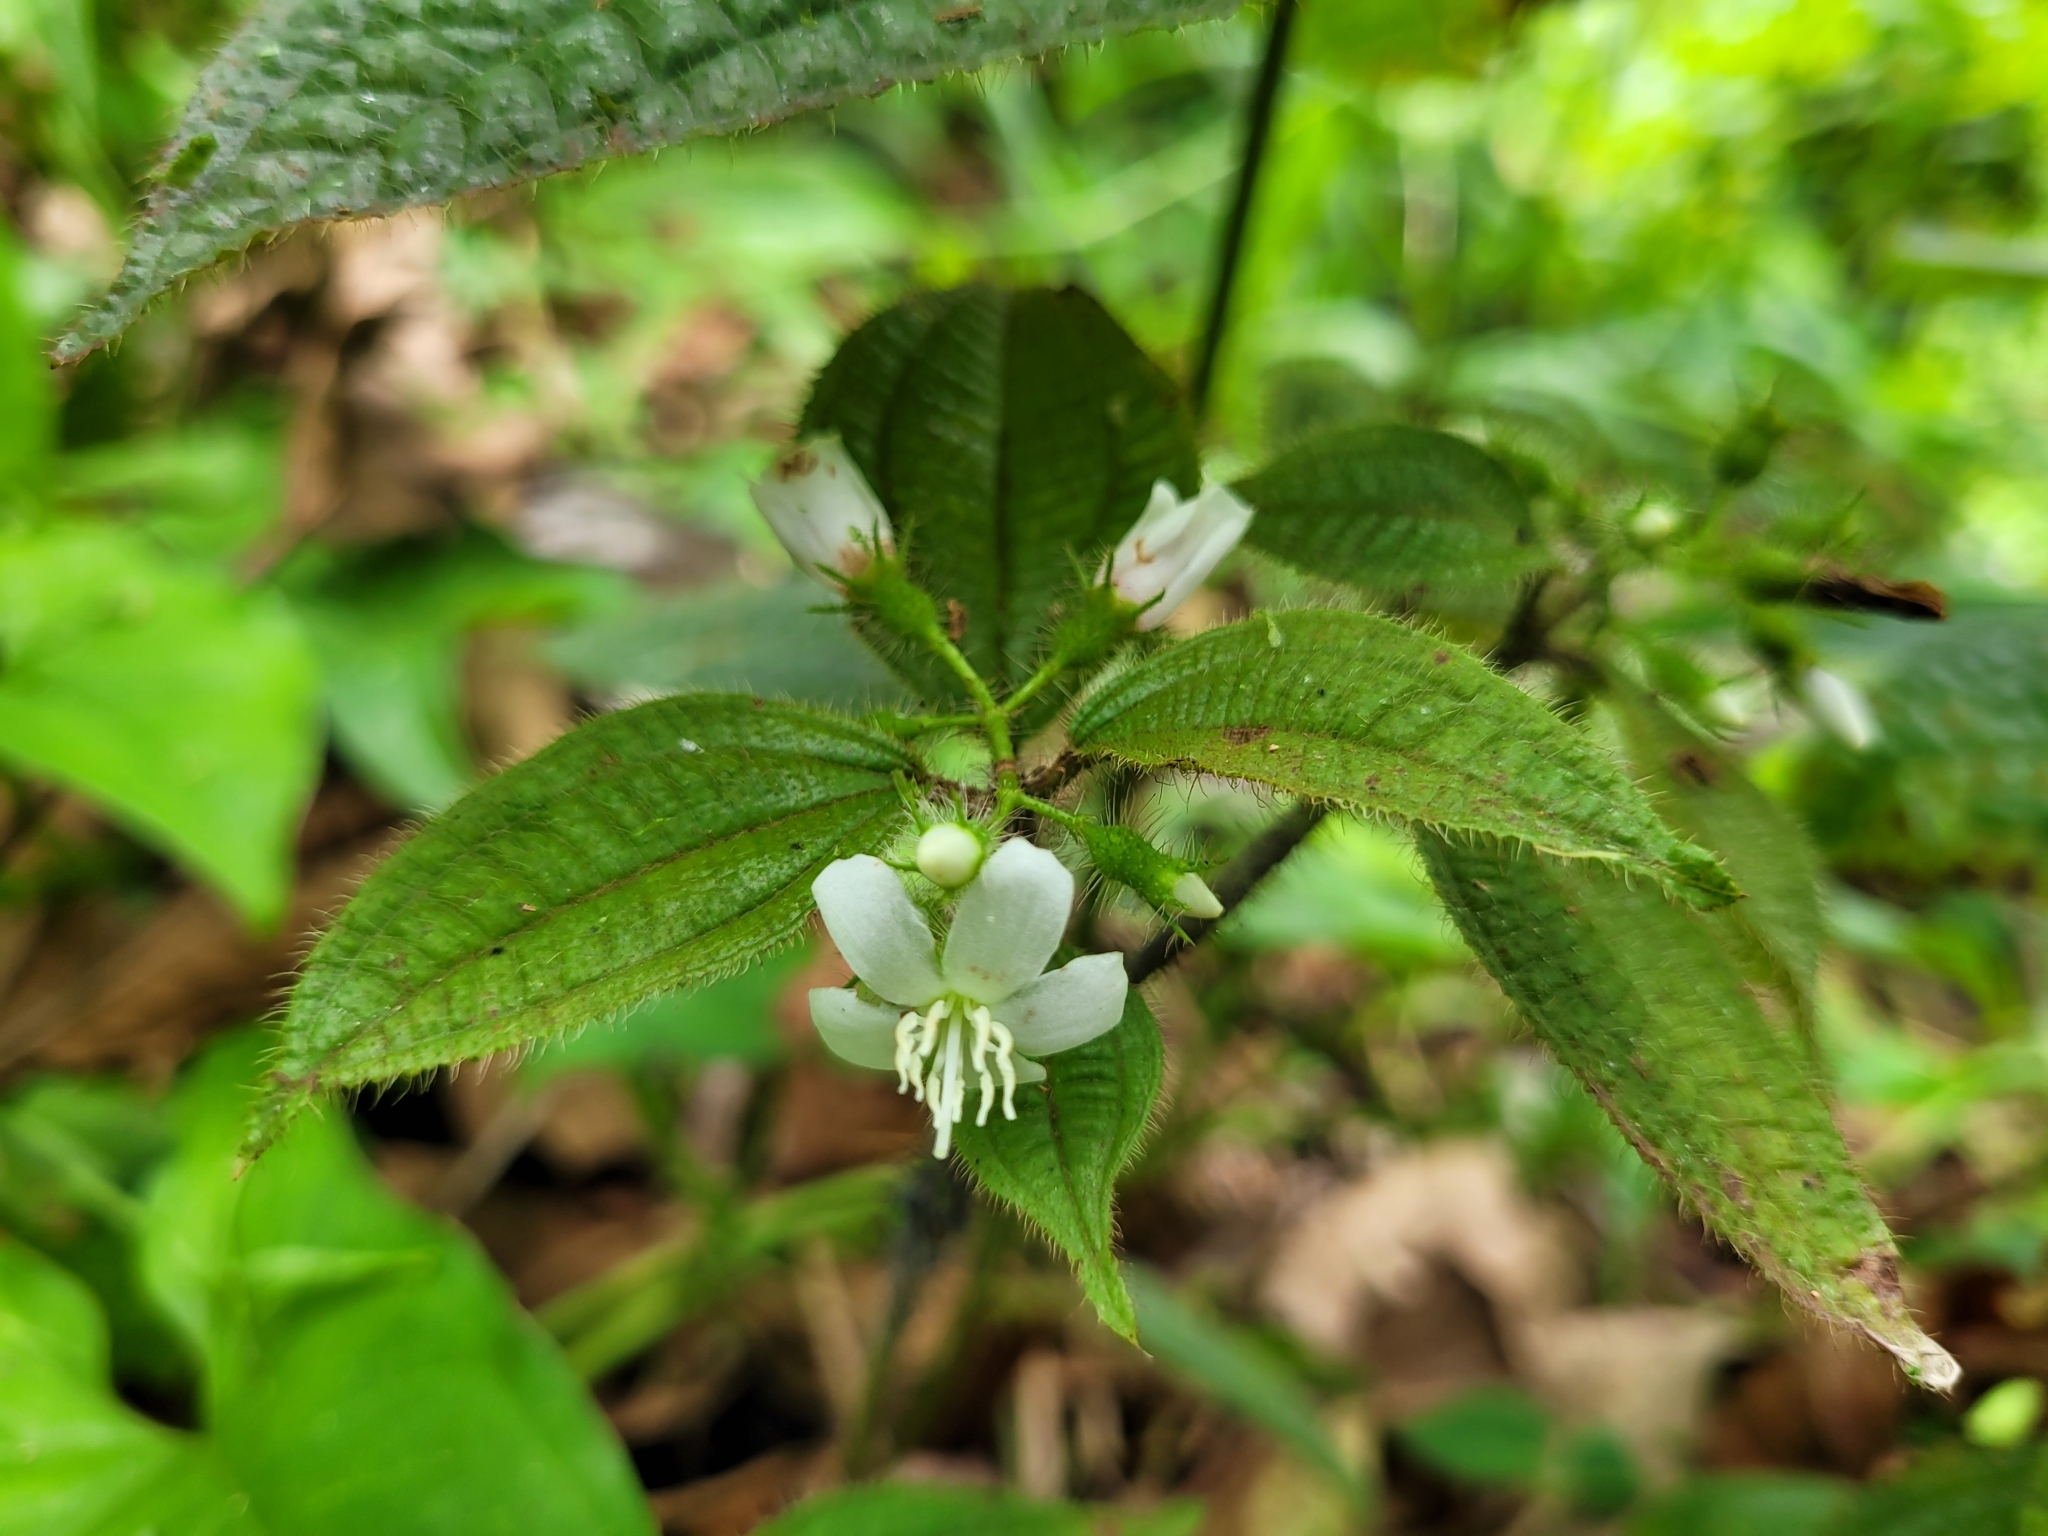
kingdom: Plantae
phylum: Tracheophyta
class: Magnoliopsida
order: Myrtales
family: Melastomataceae
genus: Miconia
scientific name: Miconia crenata
